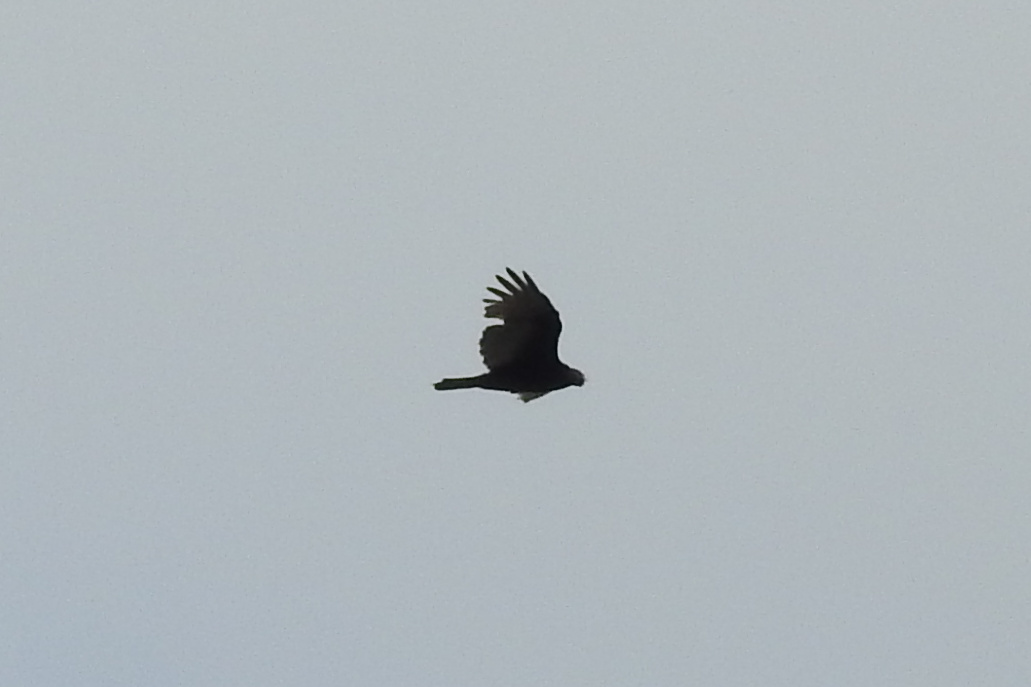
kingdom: Animalia
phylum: Chordata
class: Aves
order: Accipitriformes
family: Cathartidae
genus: Cathartes
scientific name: Cathartes aura
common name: Turkey vulture
